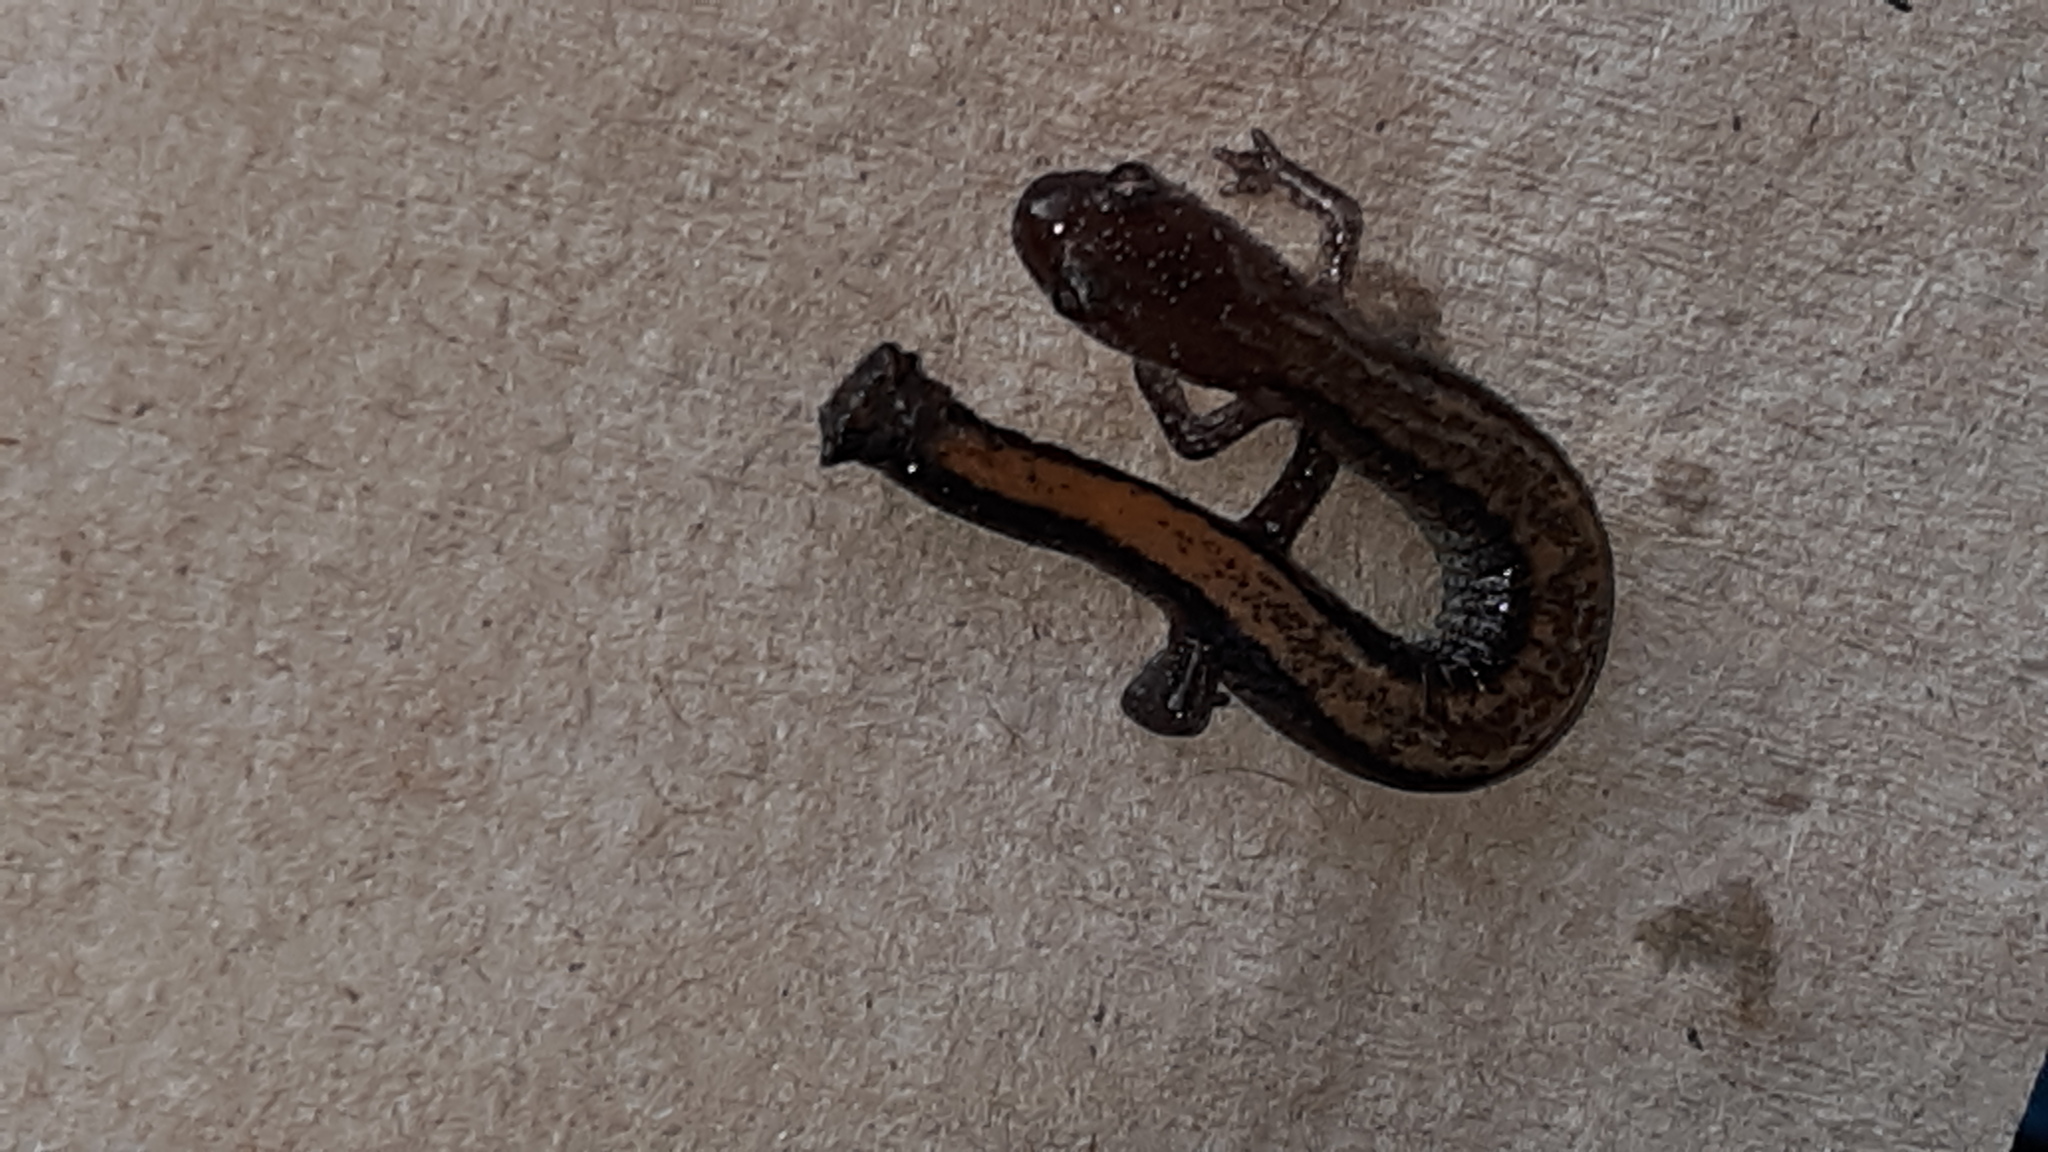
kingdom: Animalia
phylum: Chordata
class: Amphibia
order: Caudata
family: Plethodontidae
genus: Plethodon
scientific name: Plethodon cinereus
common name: Redback salamander
